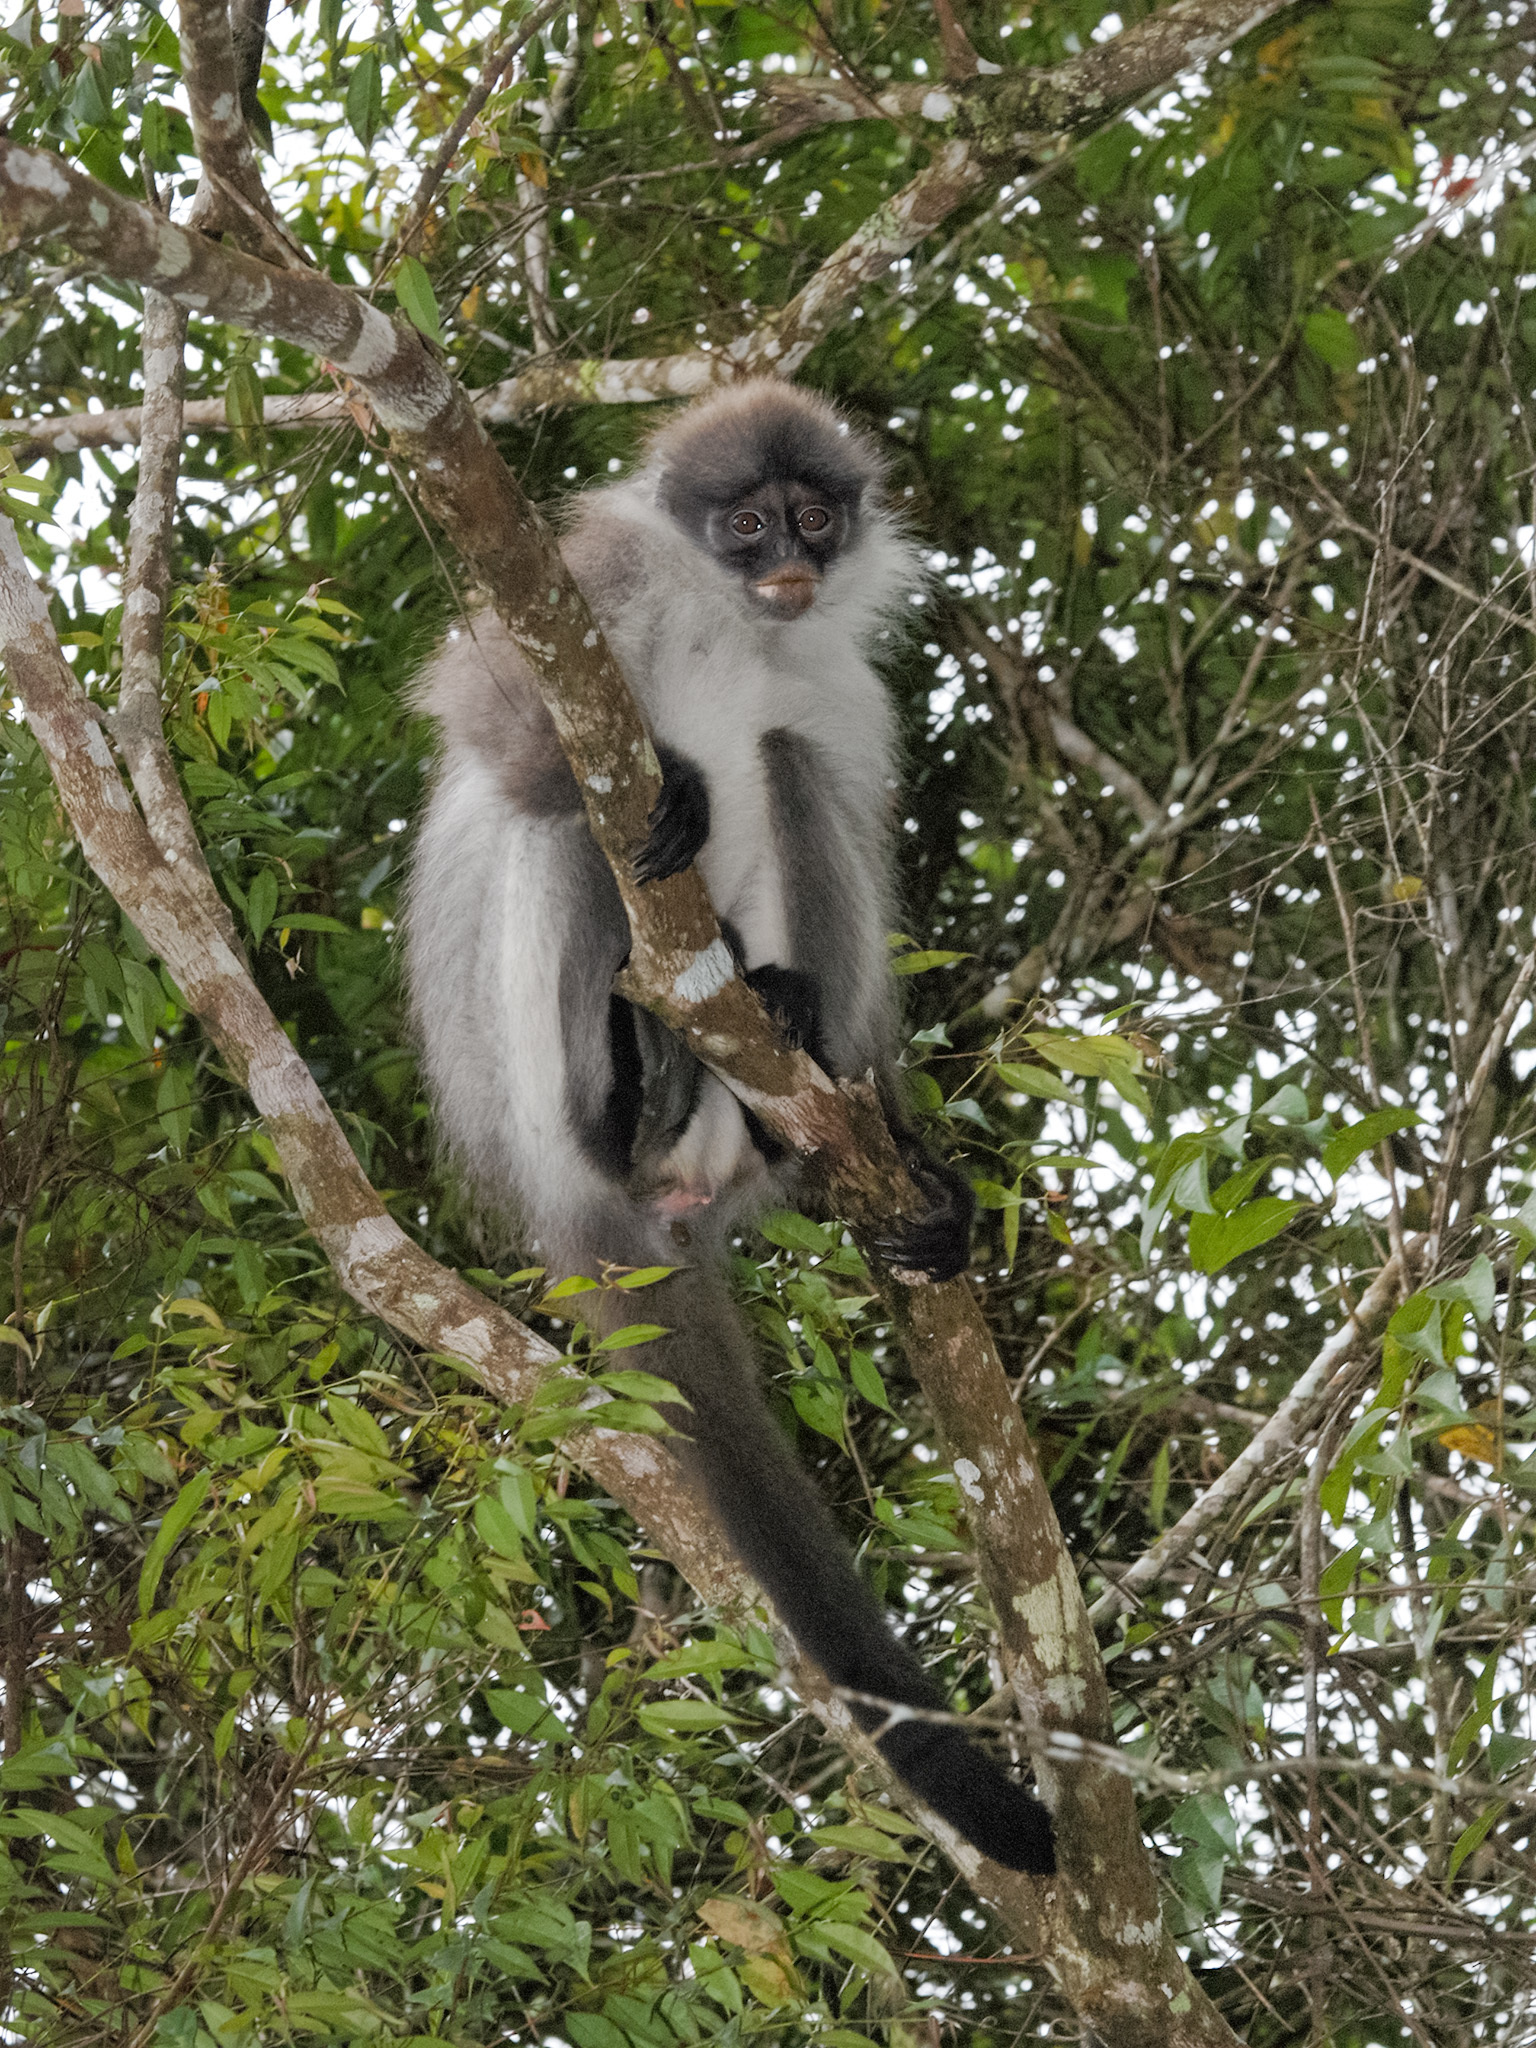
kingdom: Animalia
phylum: Chordata
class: Mammalia
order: Primates
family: Cercopithecidae
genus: Presbytis
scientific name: Presbytis siamensis
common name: White-thighed surili
